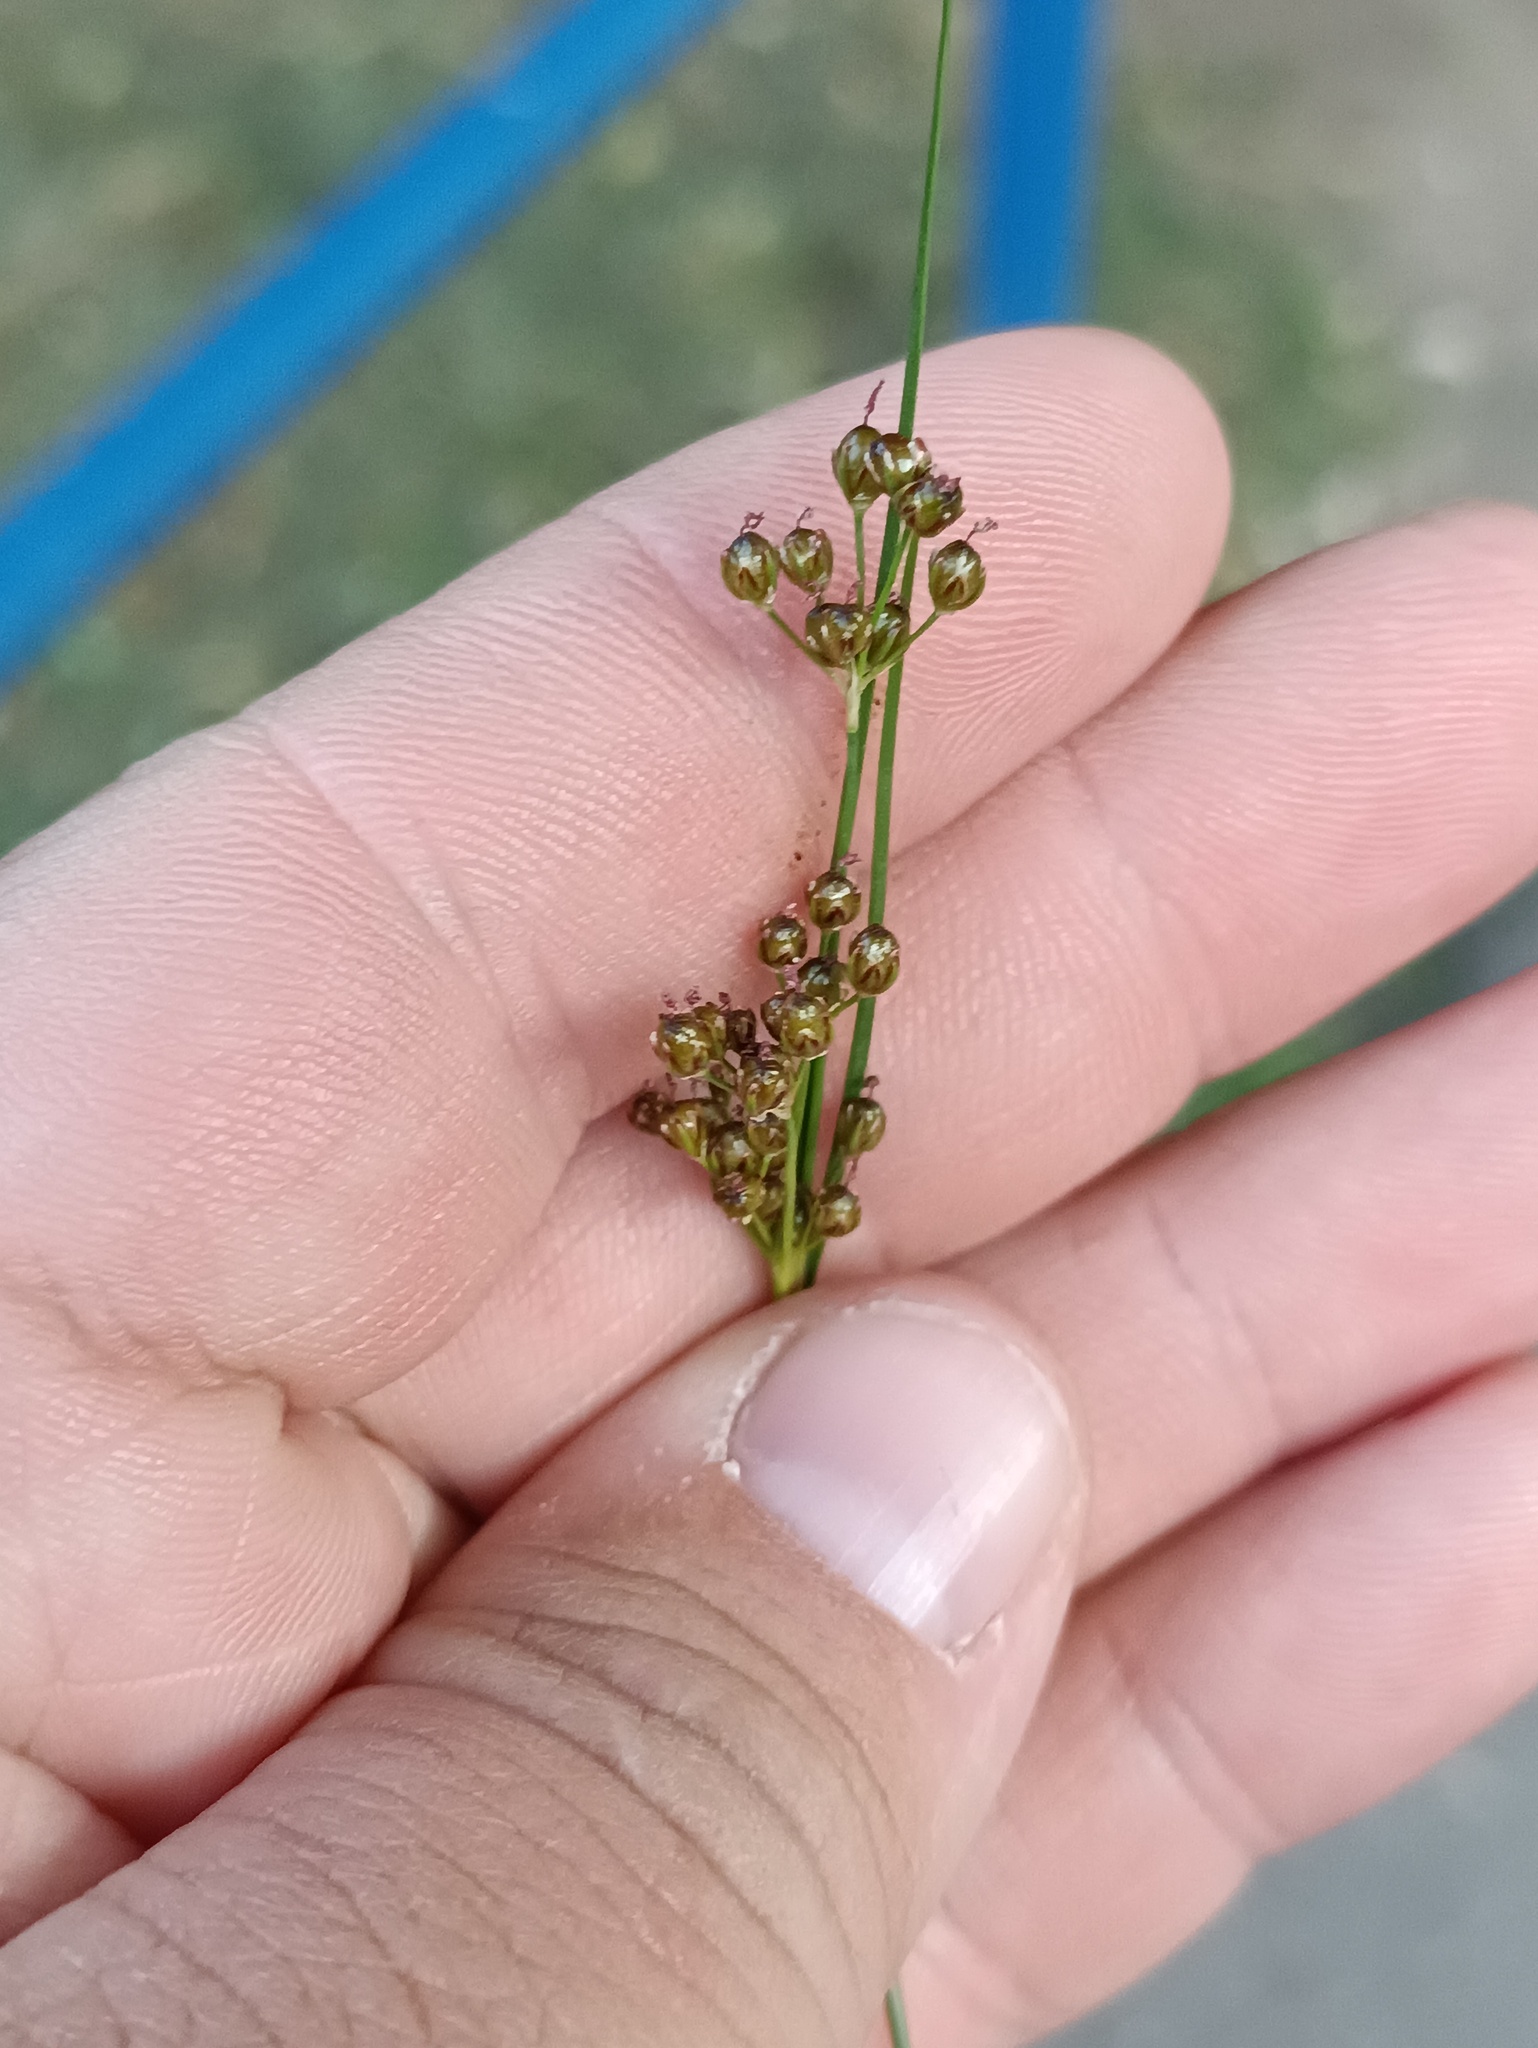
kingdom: Plantae
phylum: Tracheophyta
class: Liliopsida
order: Poales
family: Juncaceae
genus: Juncus
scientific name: Juncus compressus
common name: Round-fruited rush
